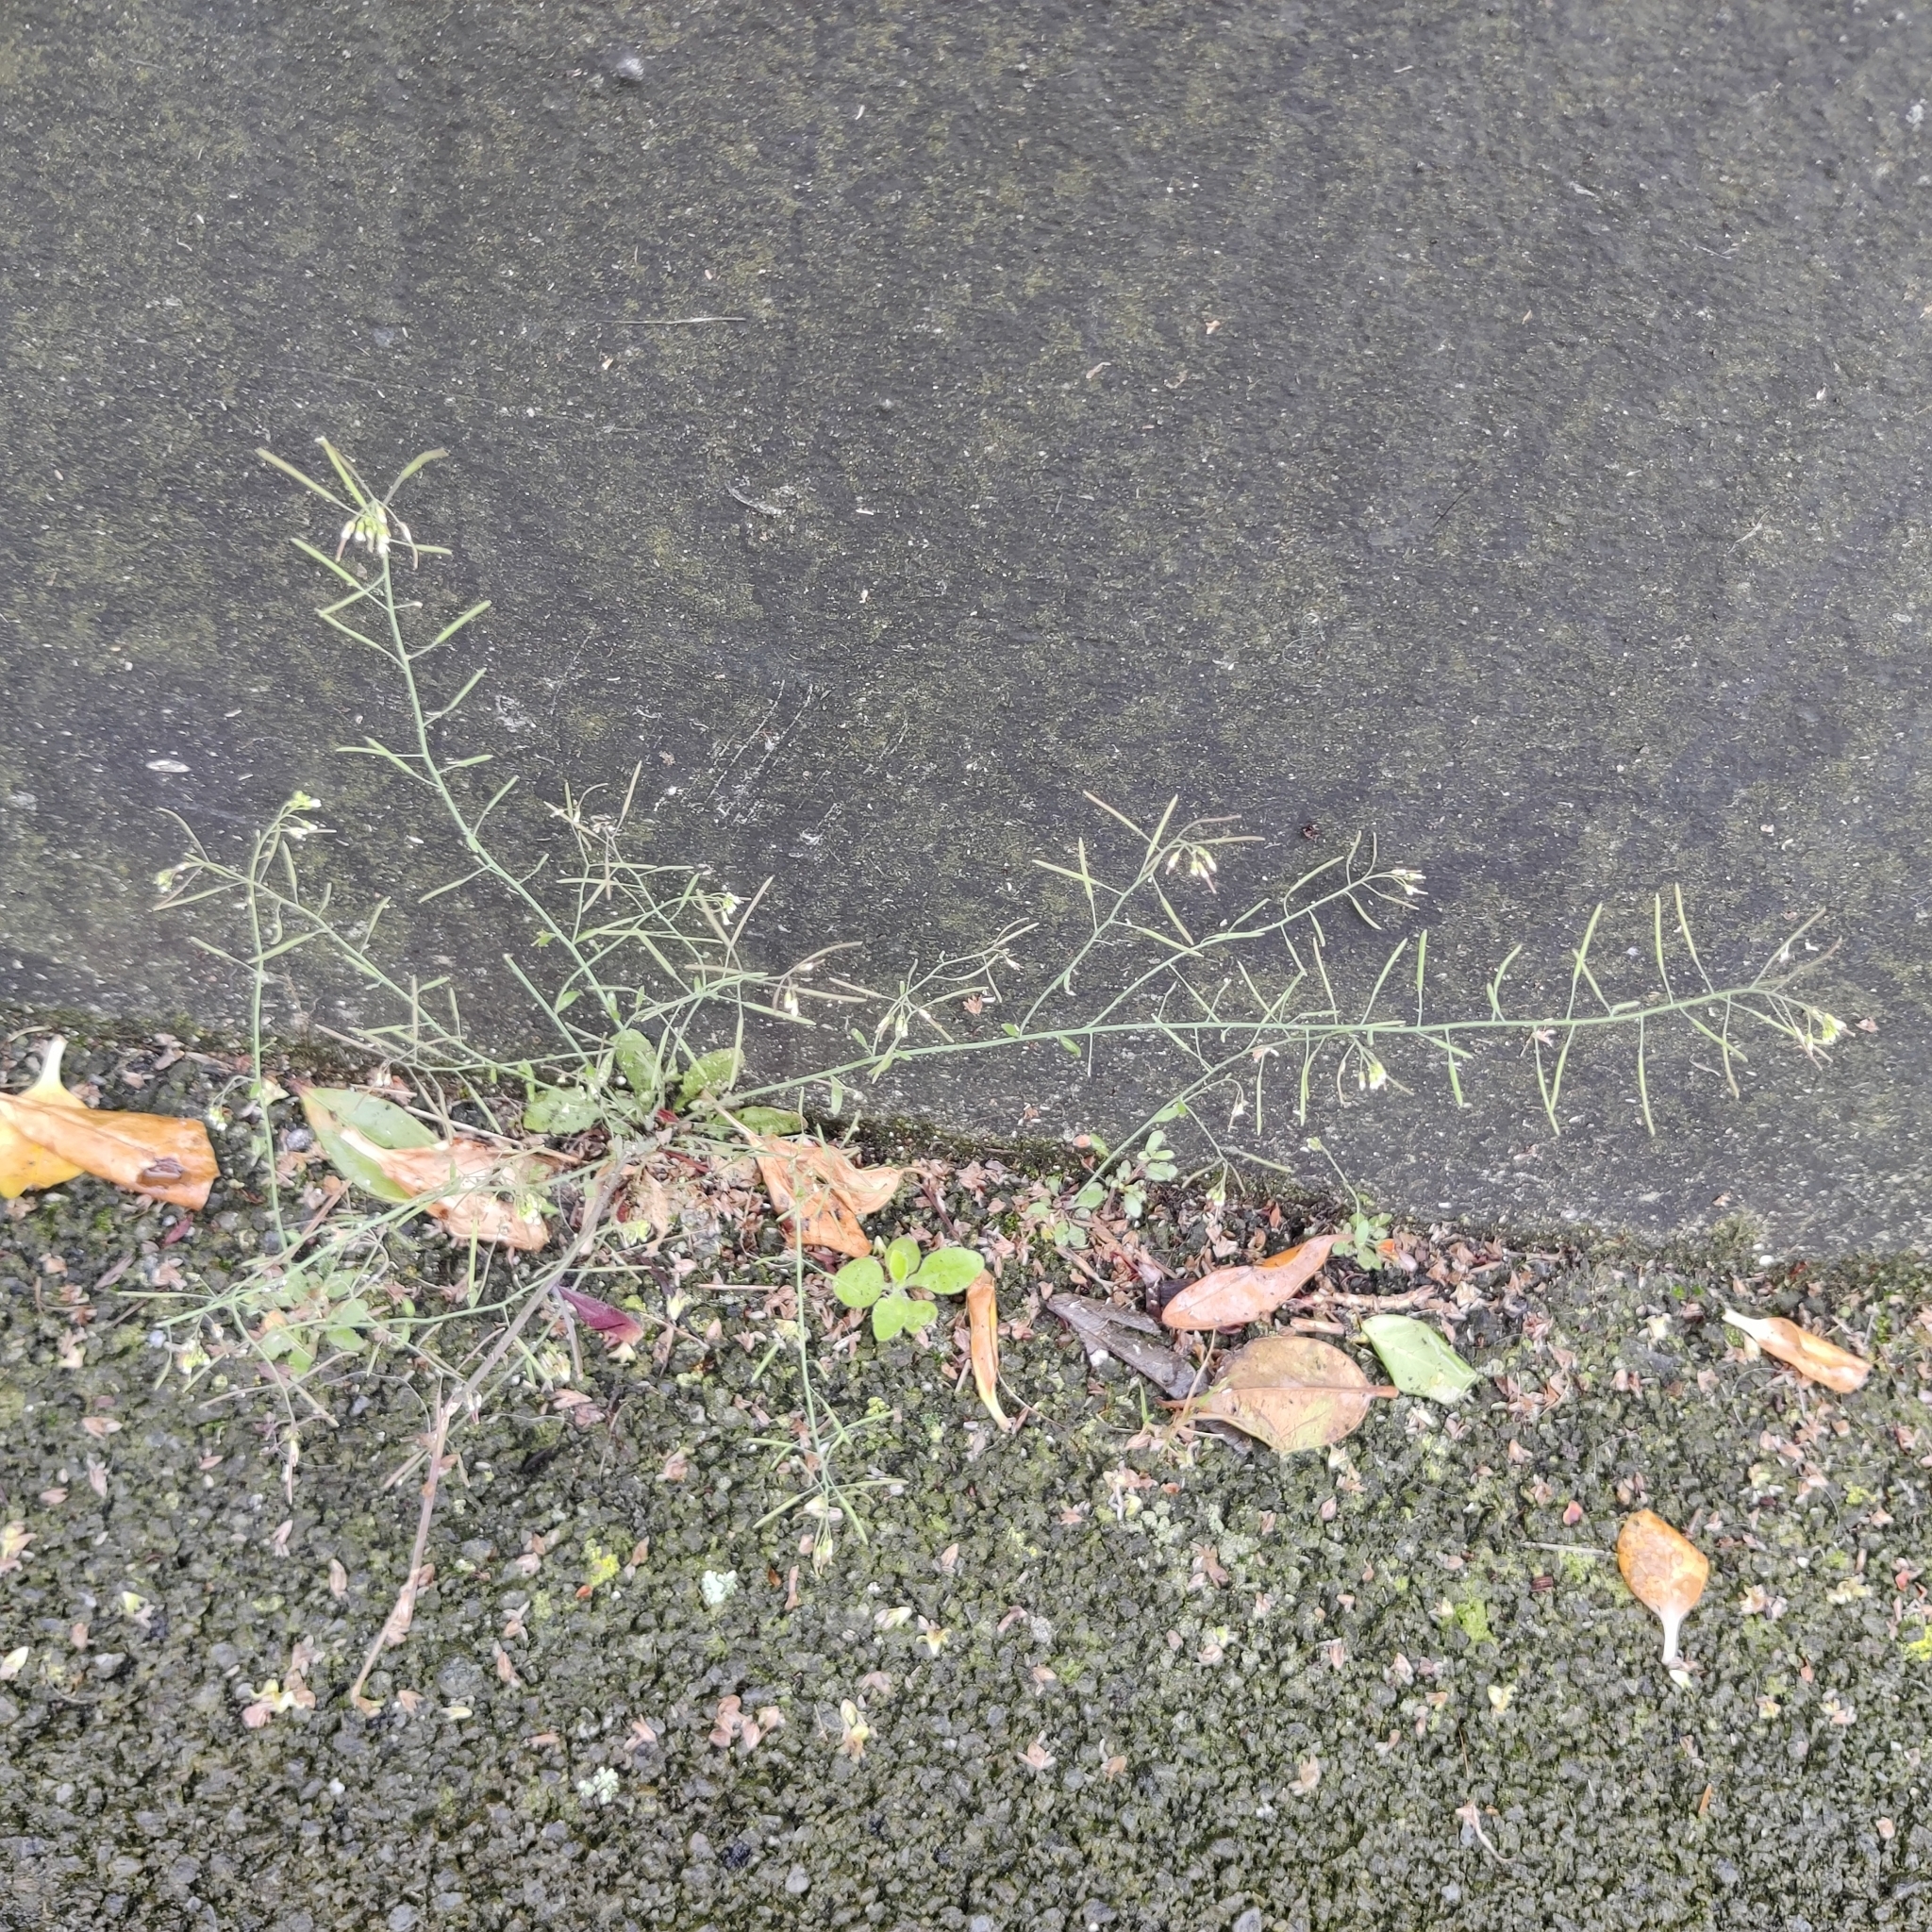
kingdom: Plantae
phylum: Tracheophyta
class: Magnoliopsida
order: Brassicales
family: Brassicaceae
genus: Arabidopsis
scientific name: Arabidopsis thaliana
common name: Thale cress
